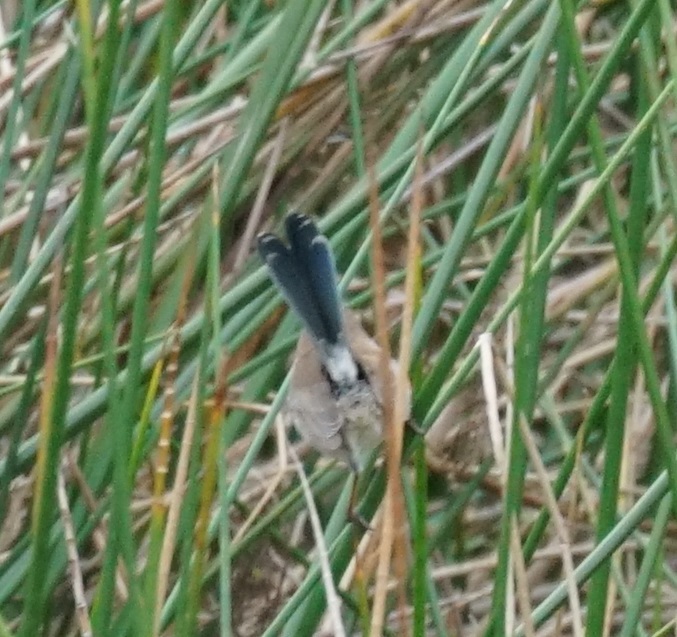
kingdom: Animalia
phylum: Chordata
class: Aves
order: Passeriformes
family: Maluridae
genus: Malurus
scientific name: Malurus cyaneus
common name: Superb fairywren
